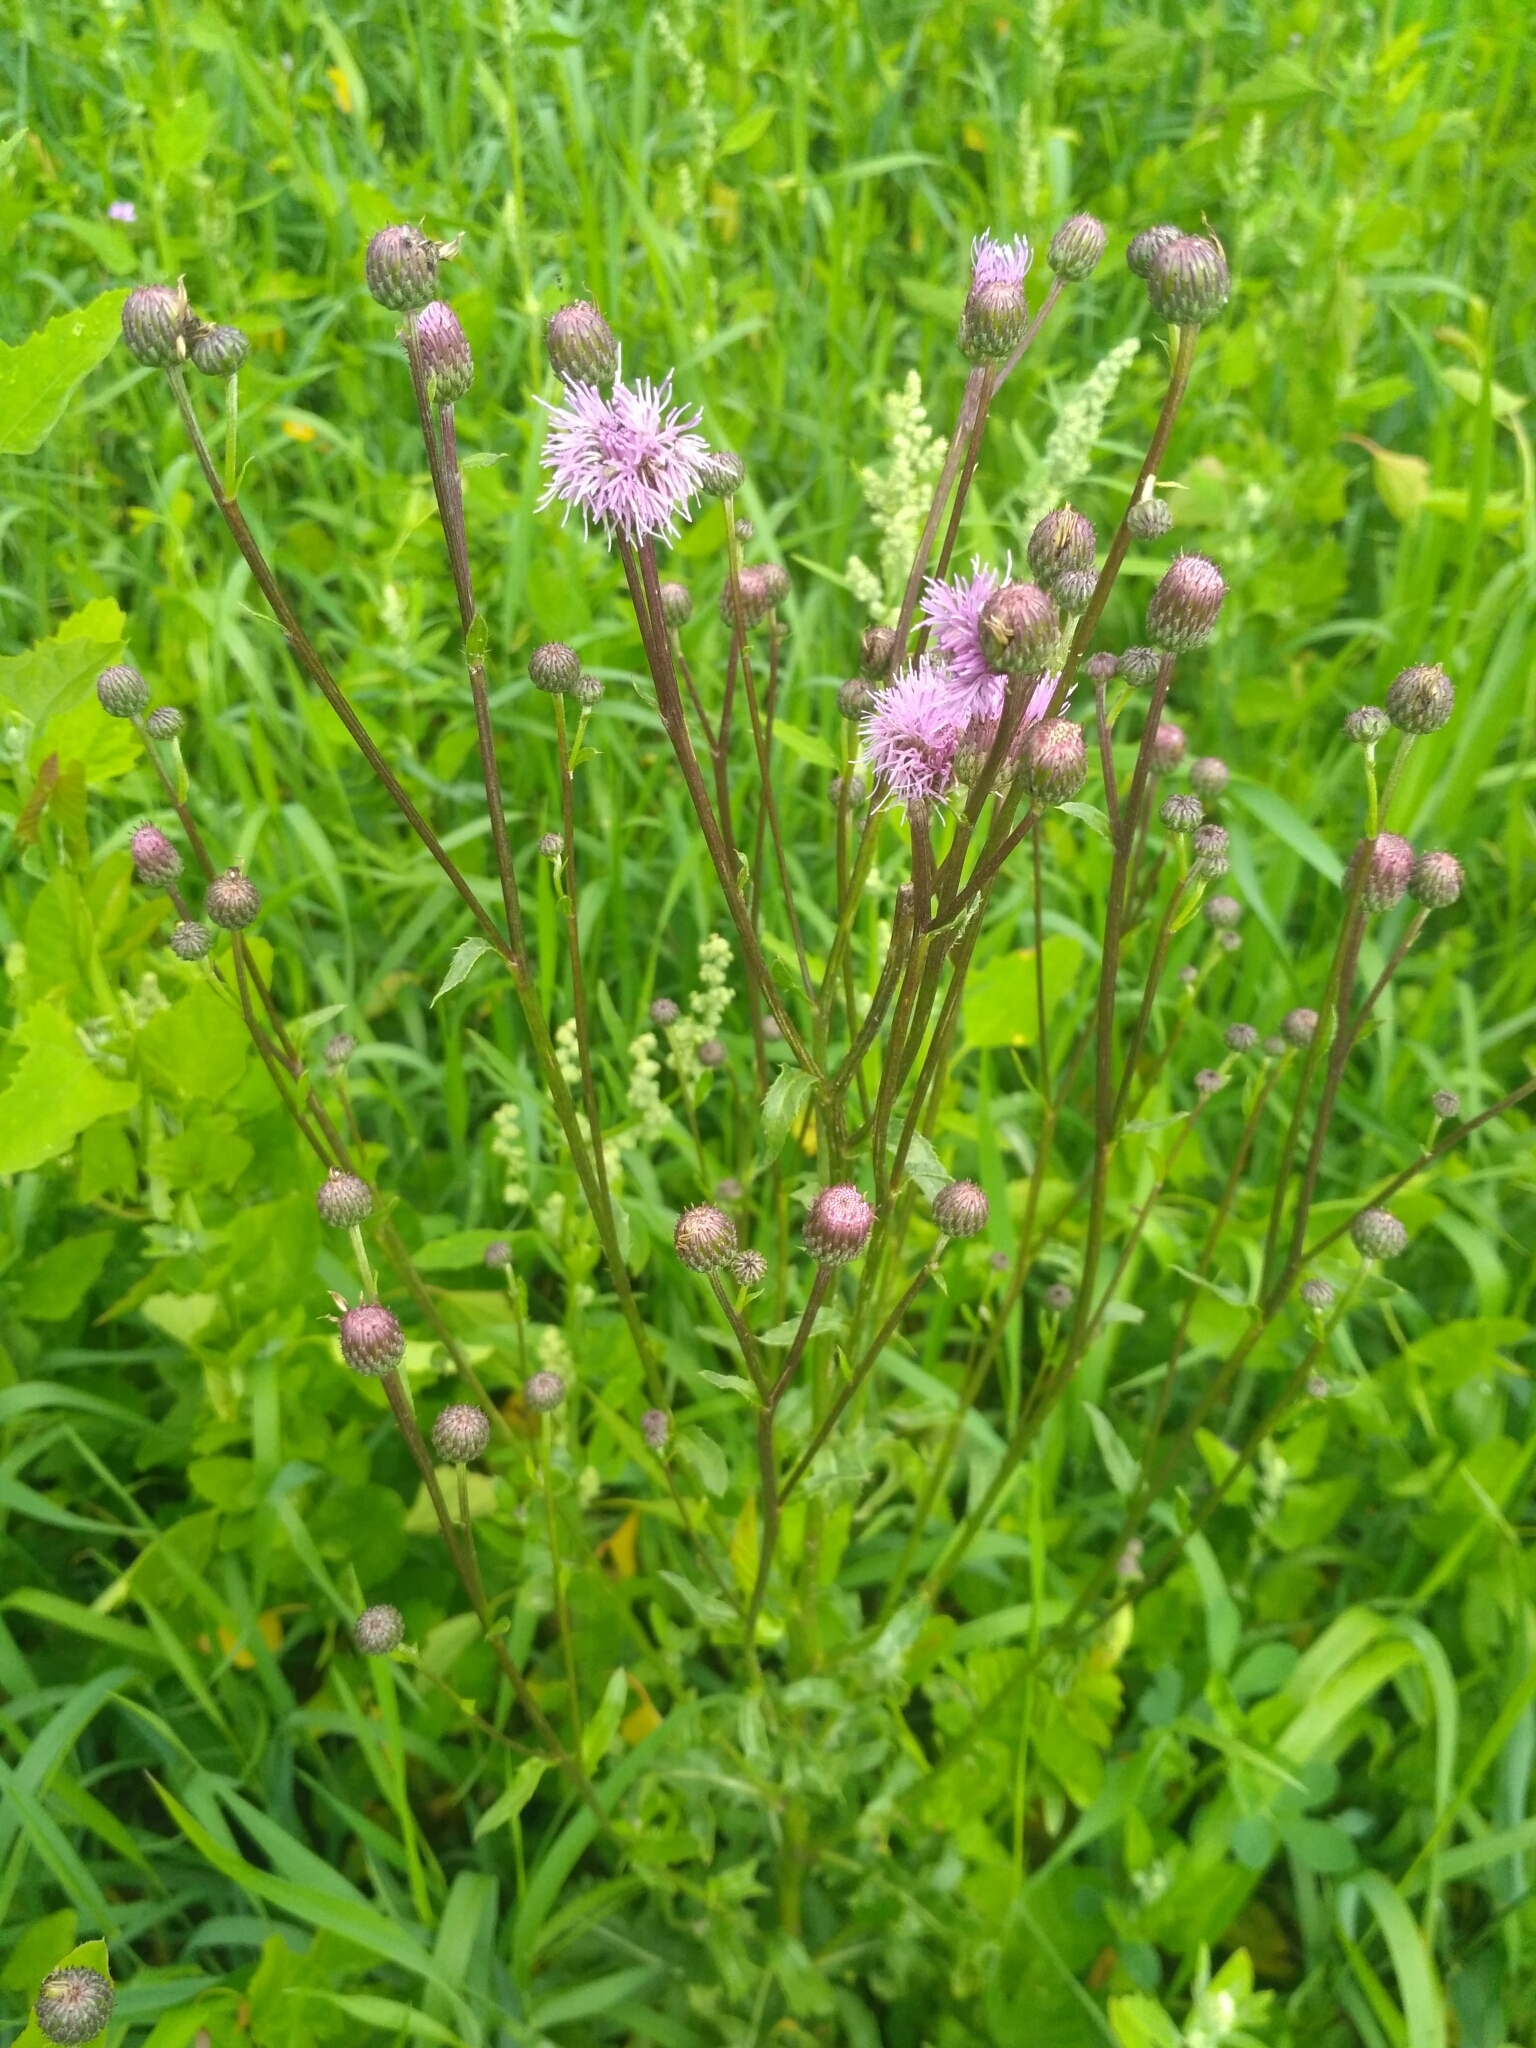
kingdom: Plantae
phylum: Tracheophyta
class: Magnoliopsida
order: Asterales
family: Asteraceae
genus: Cirsium
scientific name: Cirsium arvense
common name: Creeping thistle
